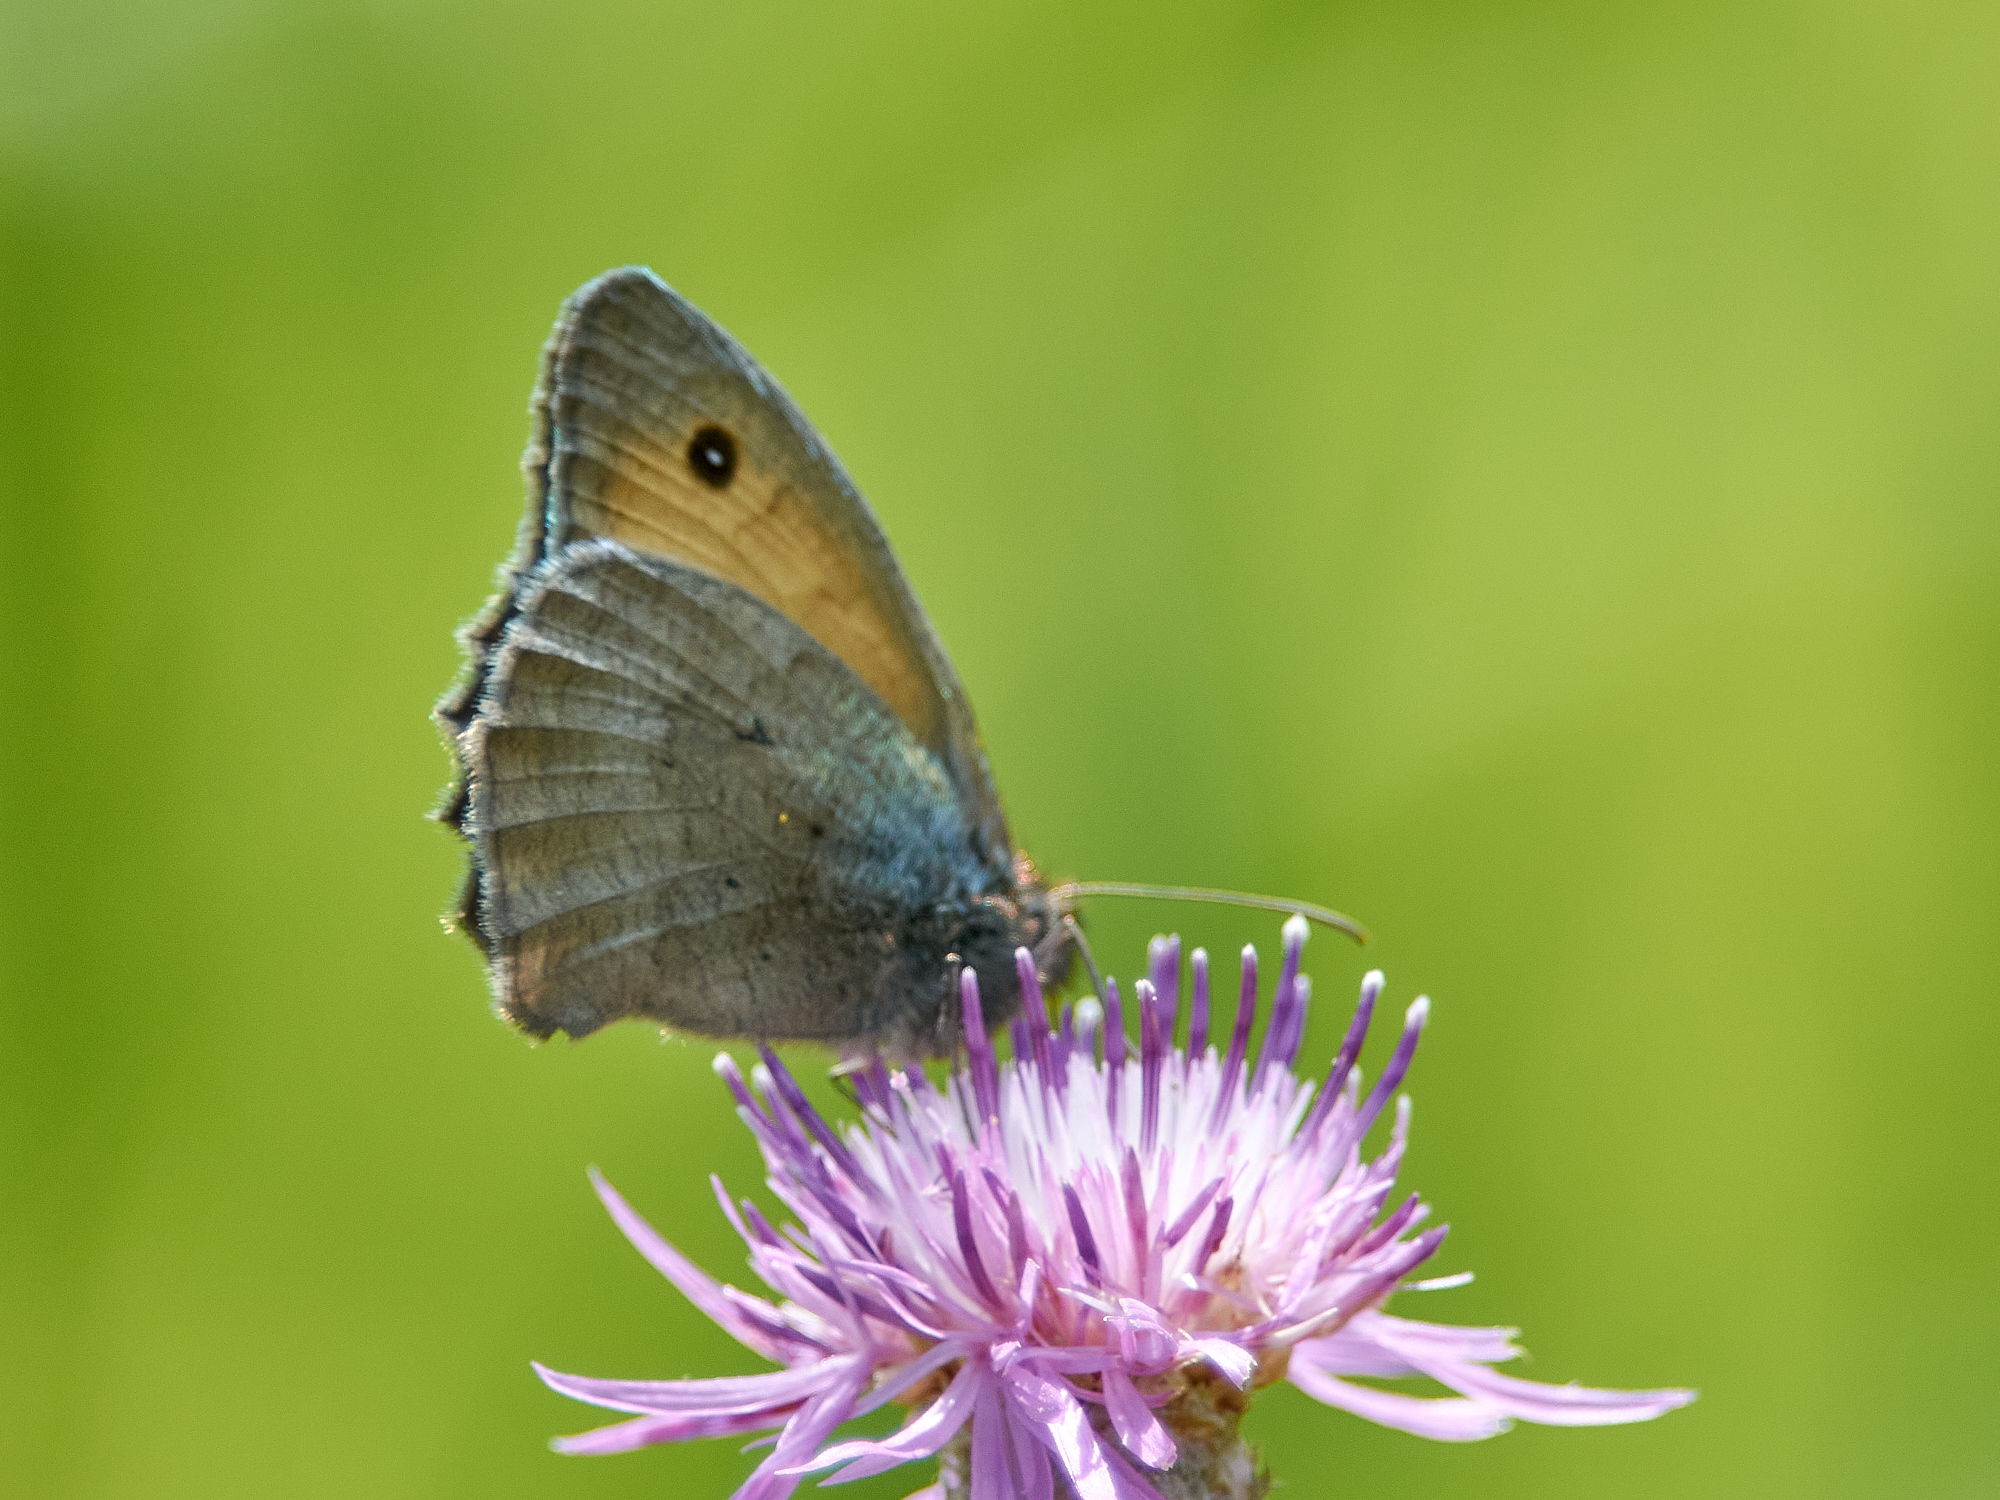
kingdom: Animalia
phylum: Arthropoda
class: Insecta
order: Lepidoptera
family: Nymphalidae
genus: Hyponephele
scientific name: Hyponephele lycaon
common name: Dusky meadow brown
